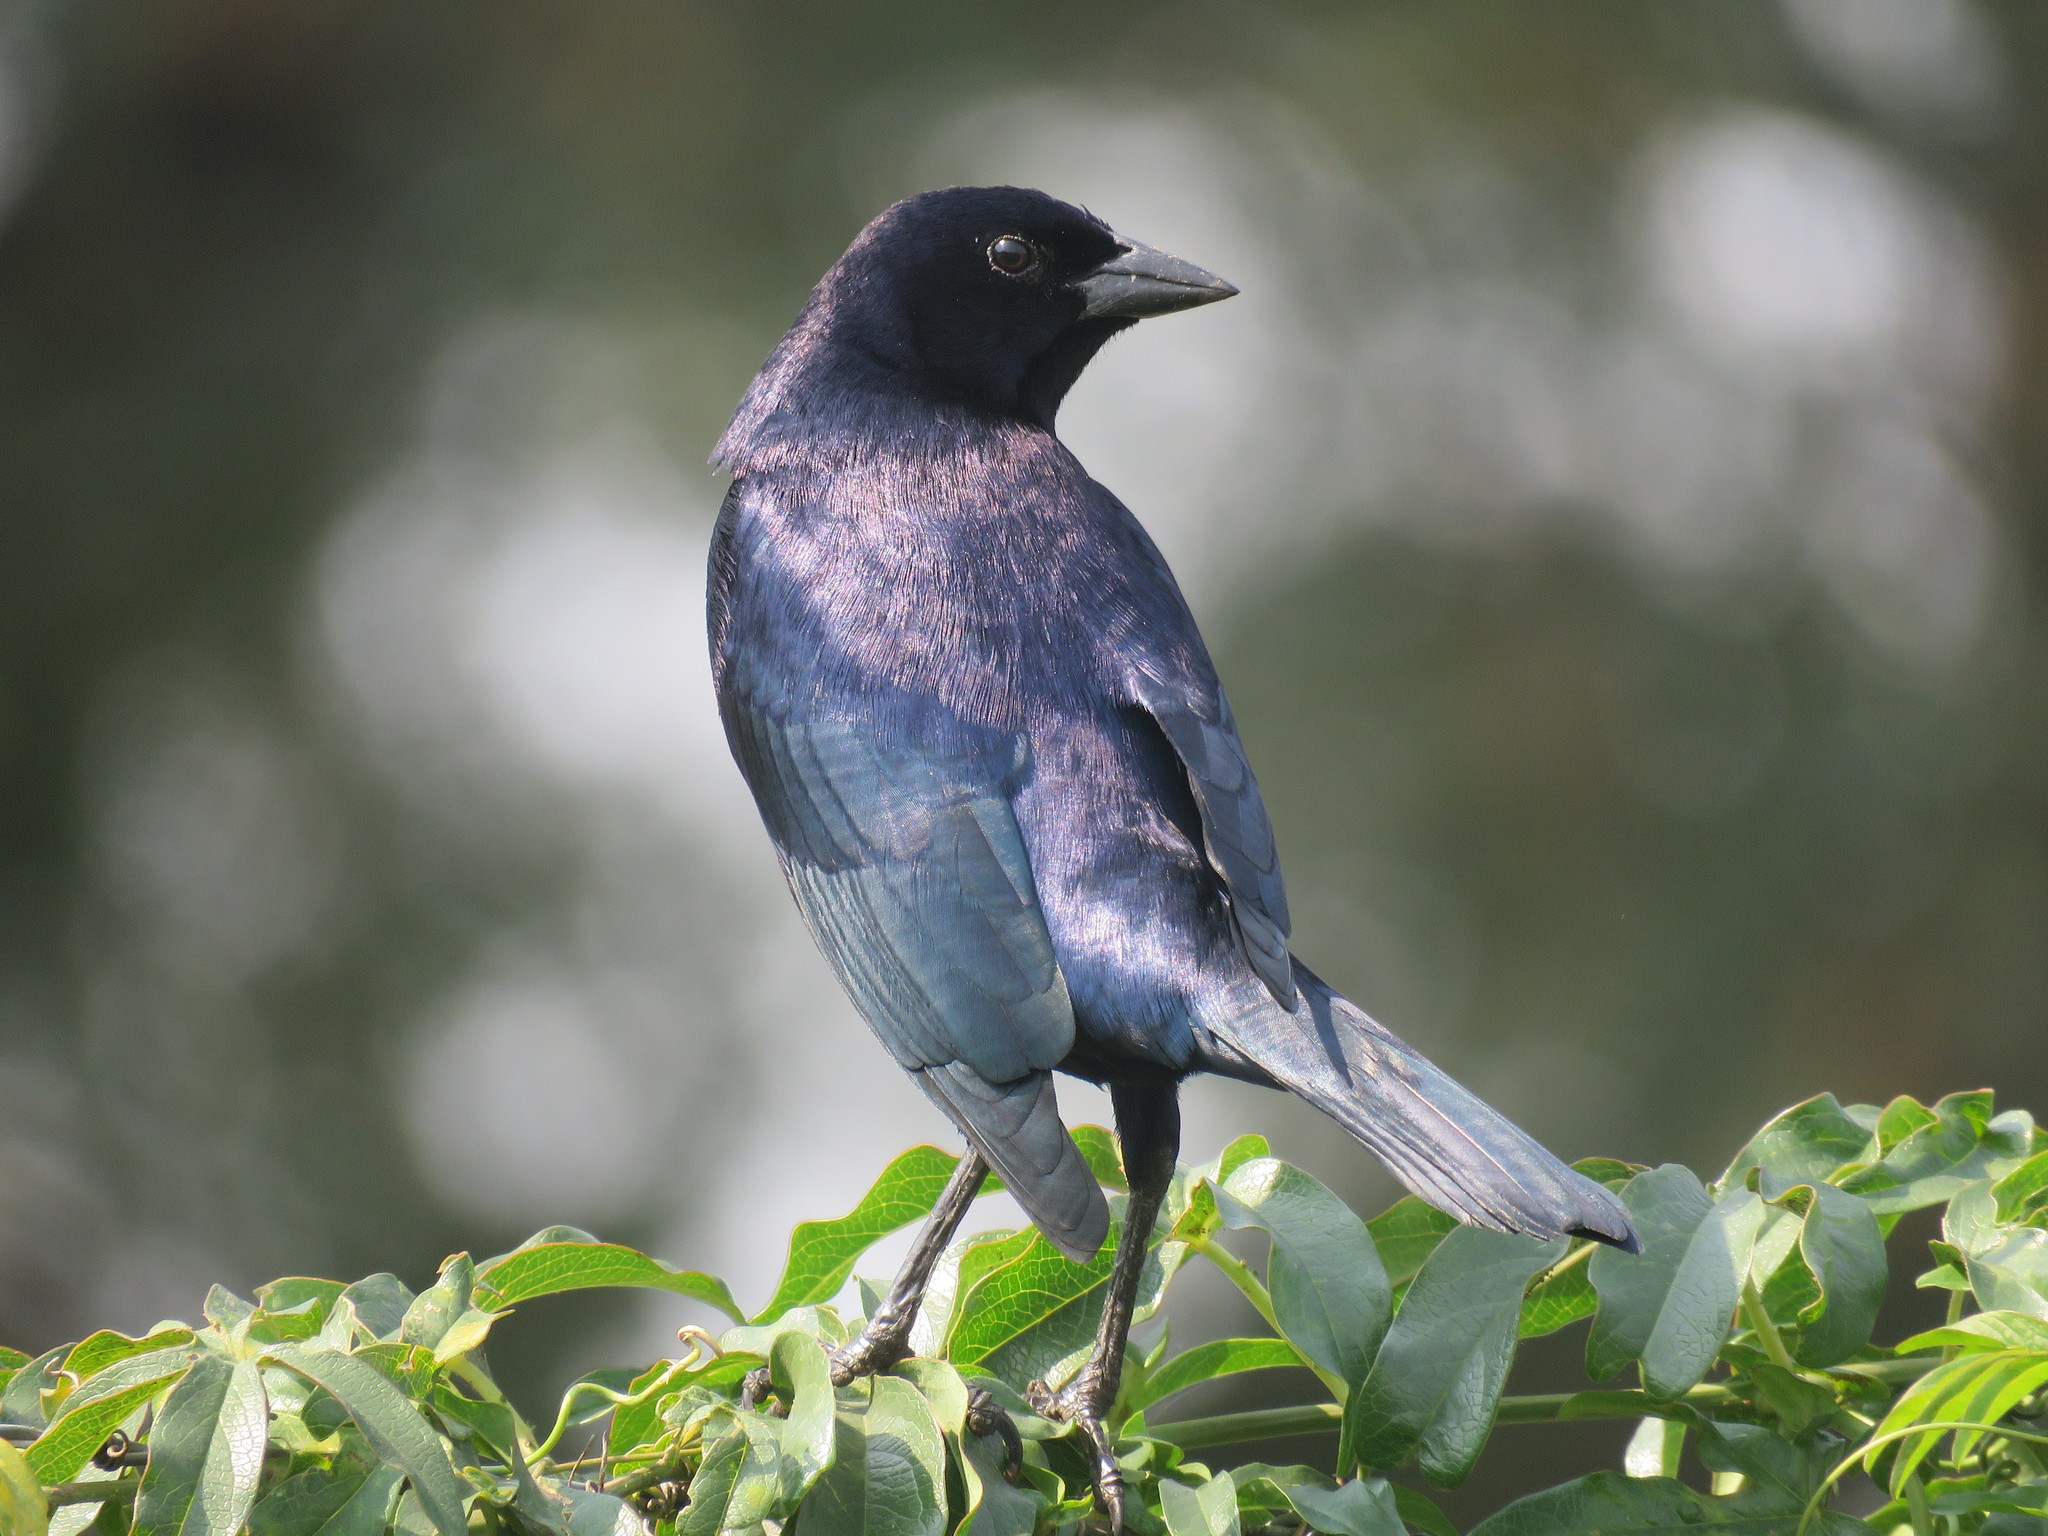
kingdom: Animalia
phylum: Chordata
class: Aves
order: Passeriformes
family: Icteridae
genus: Molothrus
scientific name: Molothrus bonariensis
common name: Shiny cowbird
